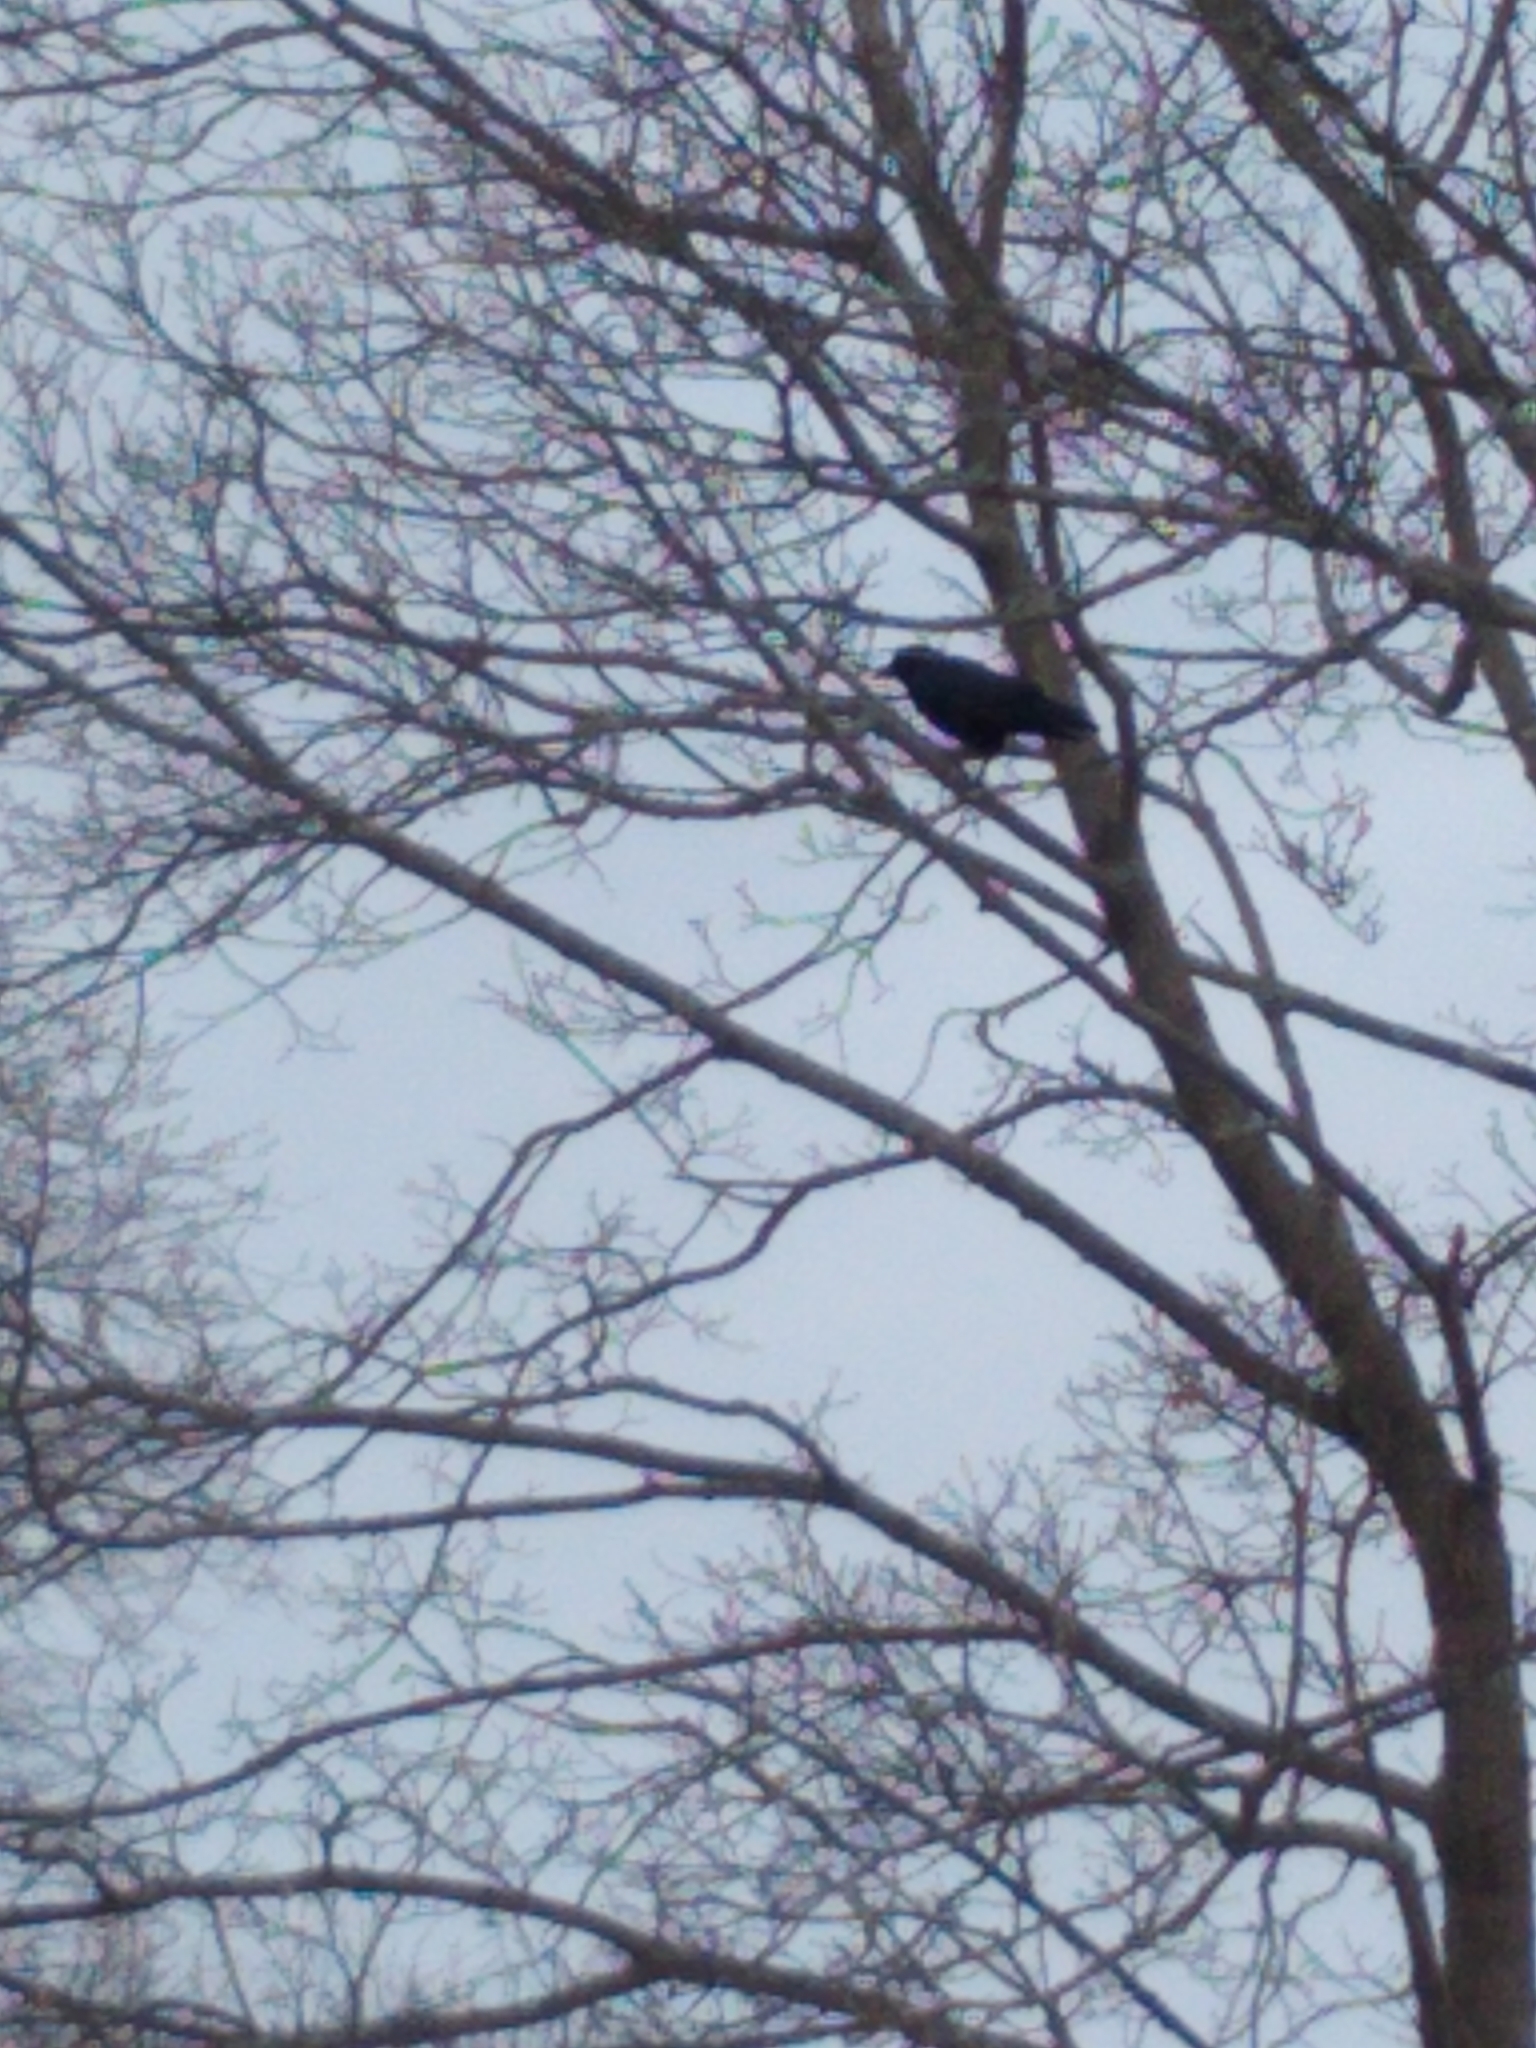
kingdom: Animalia
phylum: Chordata
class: Aves
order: Passeriformes
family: Corvidae
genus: Corvus
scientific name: Corvus brachyrhynchos
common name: American crow
